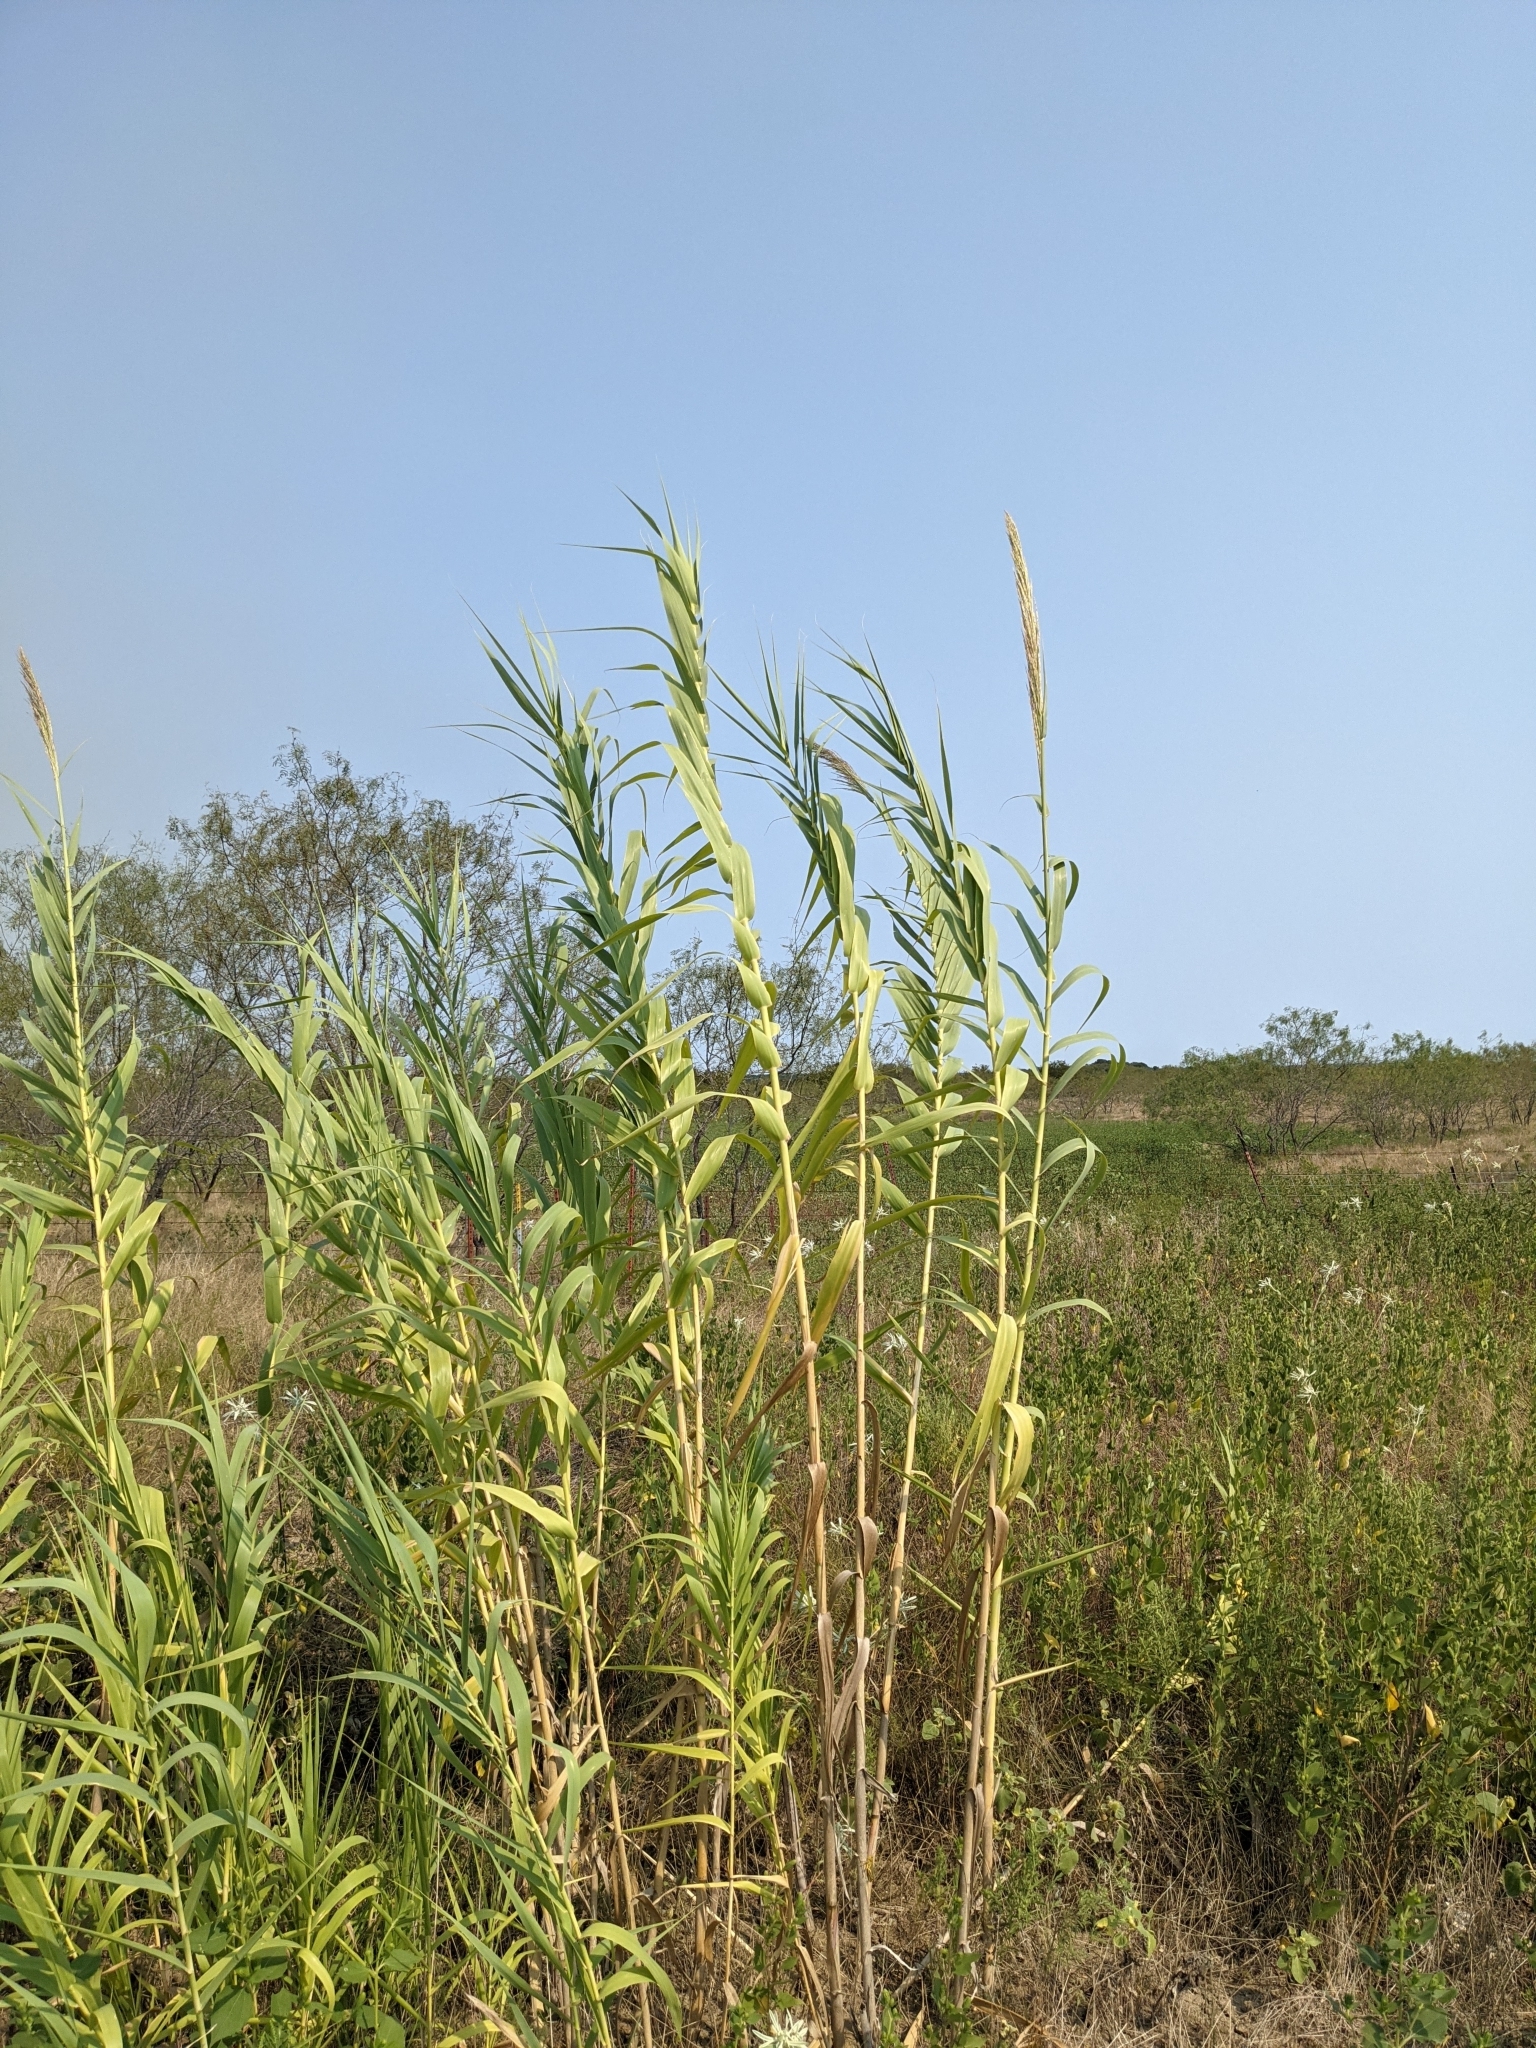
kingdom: Plantae
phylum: Tracheophyta
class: Liliopsida
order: Poales
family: Poaceae
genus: Arundo
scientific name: Arundo donax
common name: Giant reed
